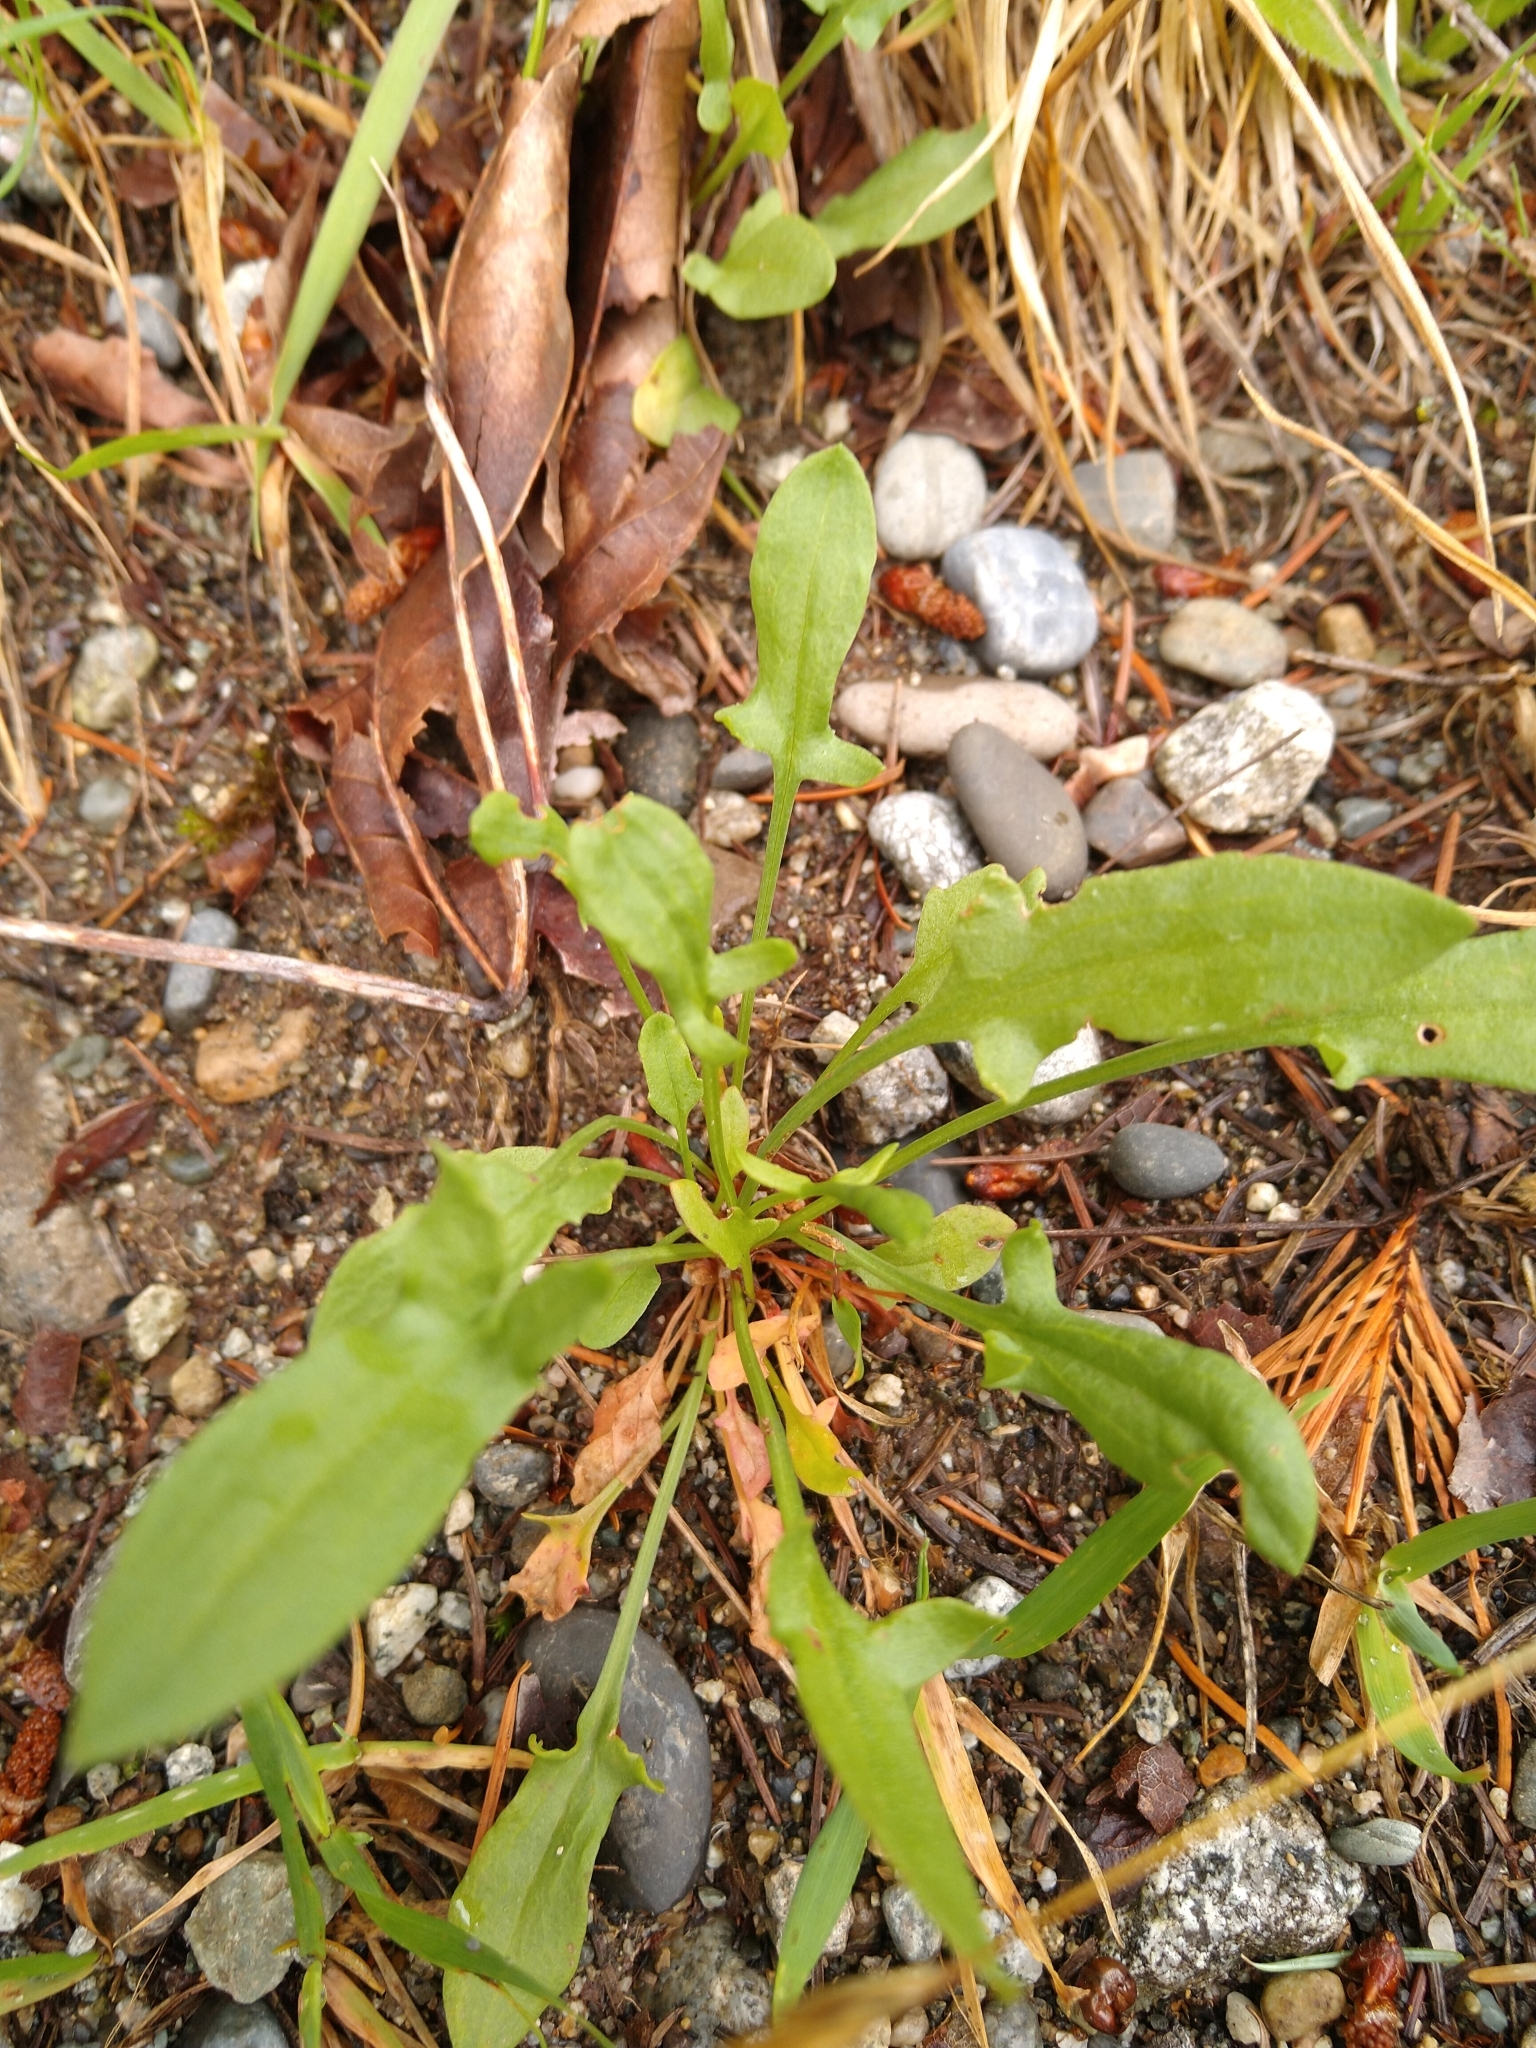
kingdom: Plantae
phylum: Tracheophyta
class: Magnoliopsida
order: Caryophyllales
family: Polygonaceae
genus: Rumex
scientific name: Rumex acetosella
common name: Common sheep sorrel
